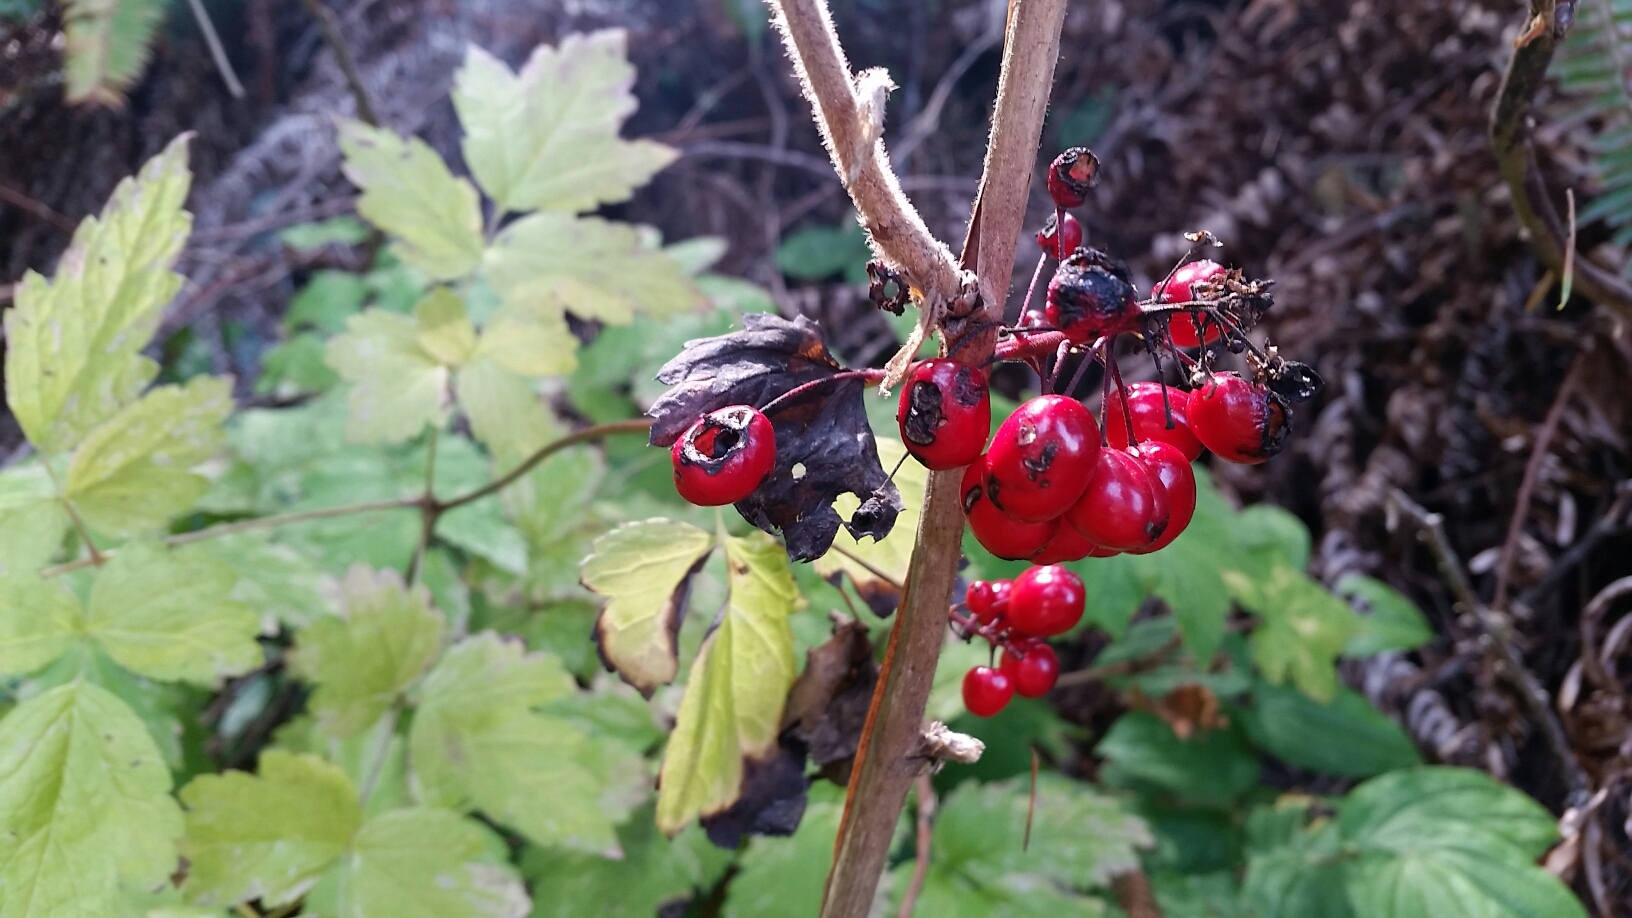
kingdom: Plantae
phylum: Tracheophyta
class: Magnoliopsida
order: Ranunculales
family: Ranunculaceae
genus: Actaea
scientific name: Actaea rubra
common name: Red baneberry
